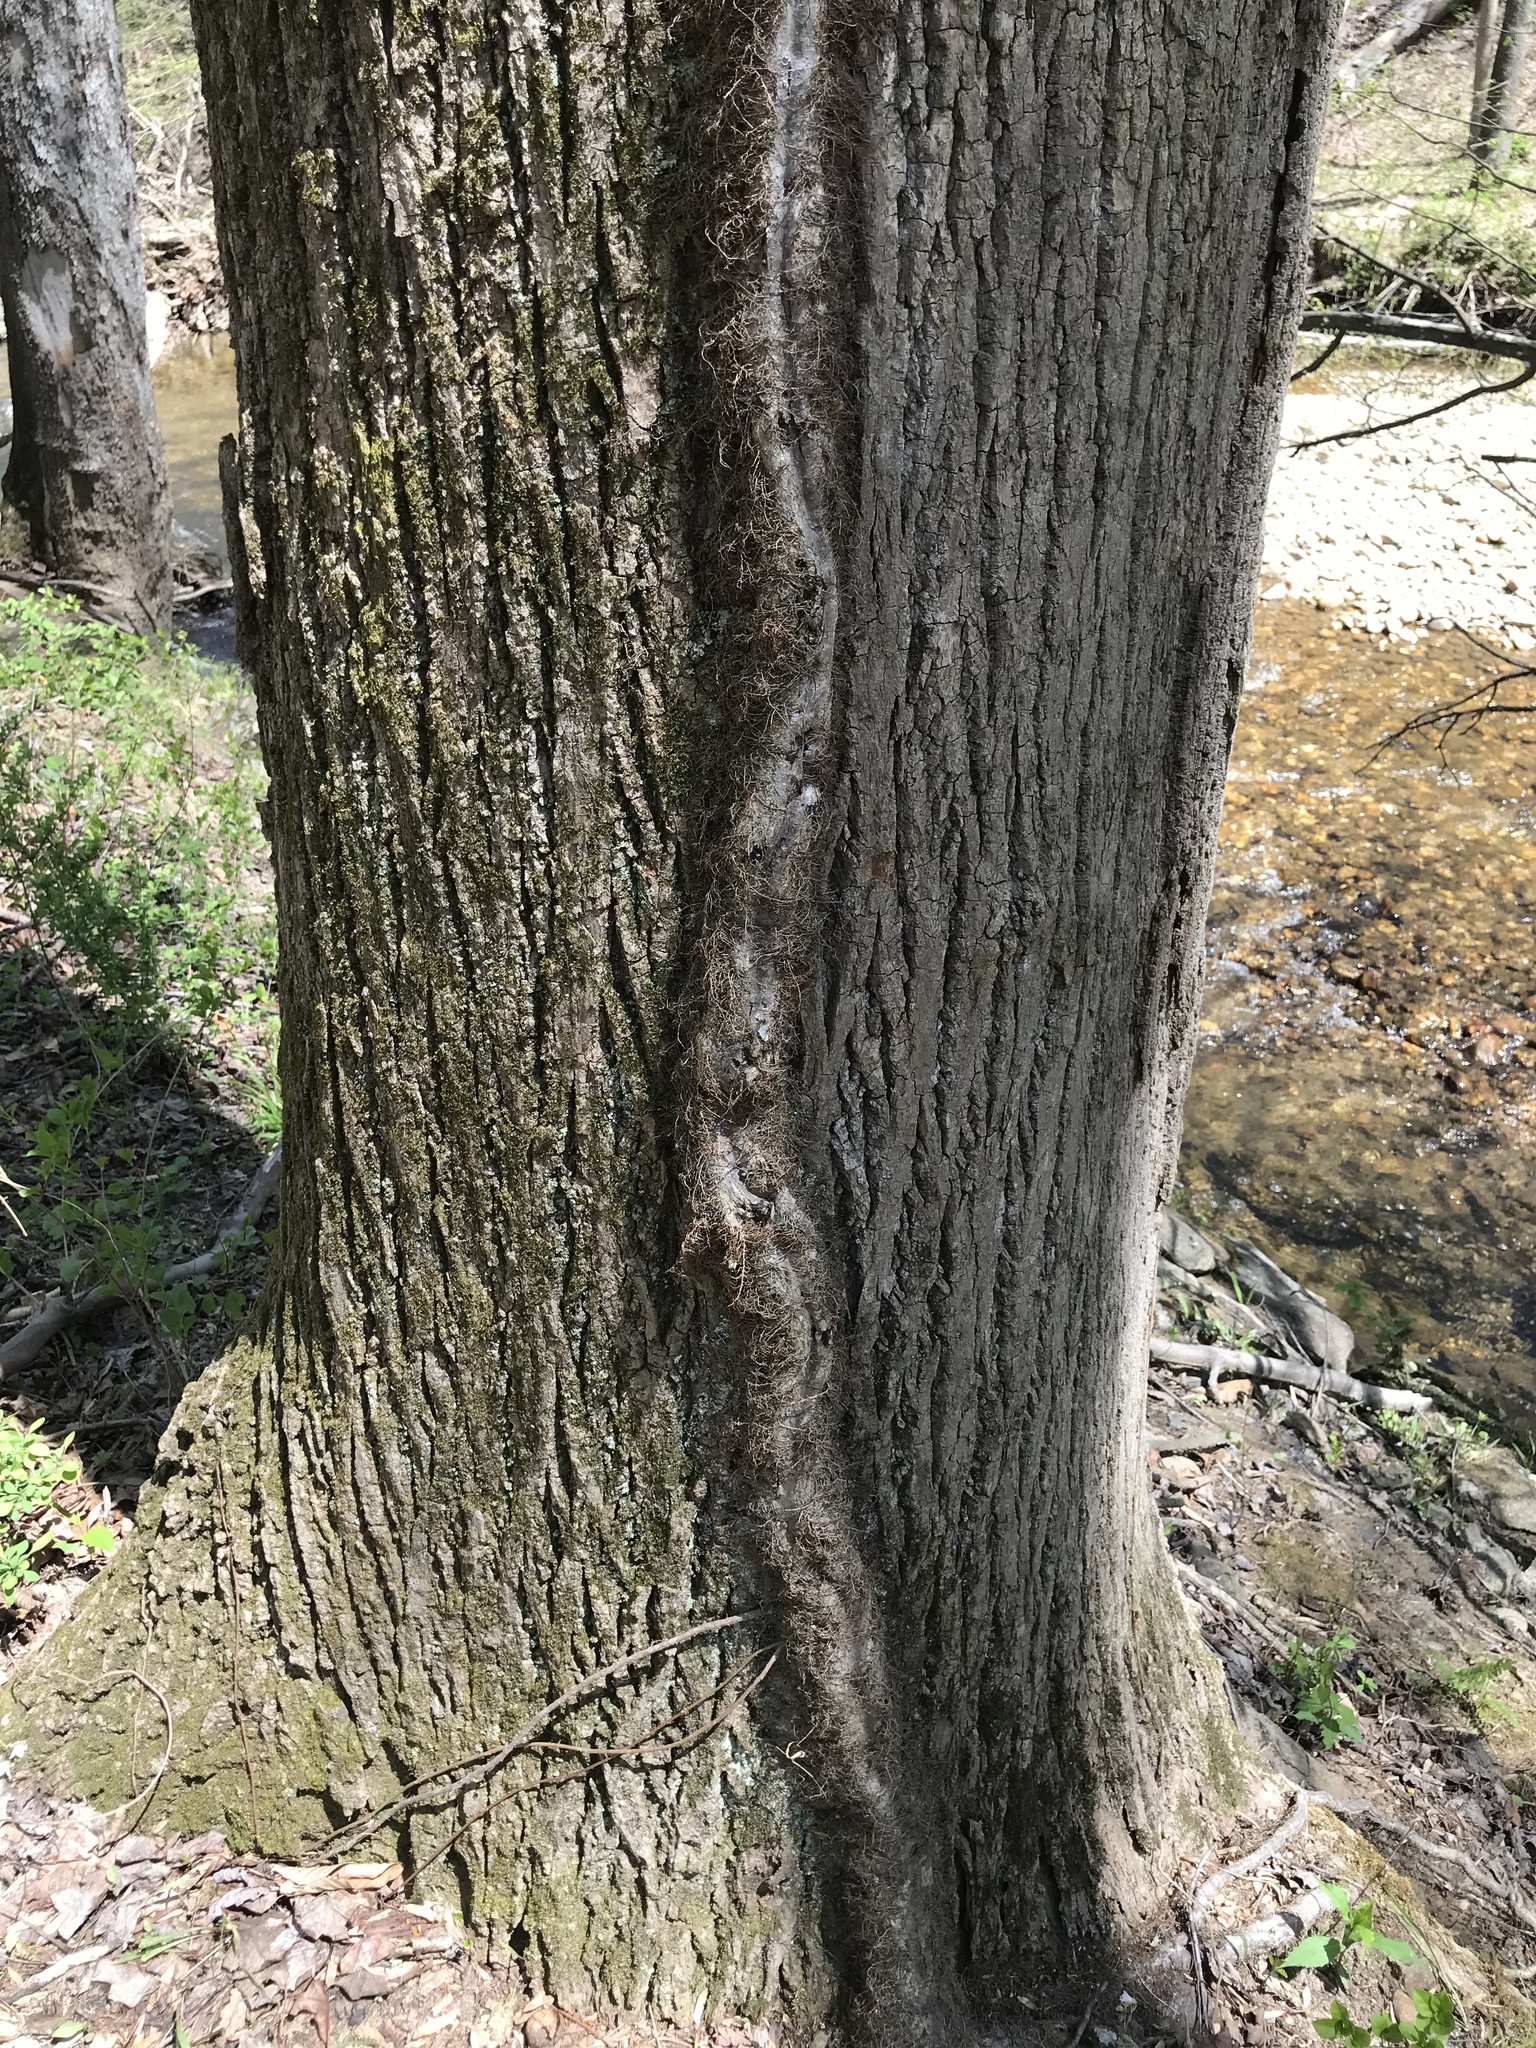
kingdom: Plantae
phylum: Tracheophyta
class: Magnoliopsida
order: Sapindales
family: Anacardiaceae
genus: Toxicodendron
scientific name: Toxicodendron radicans
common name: Poison ivy
